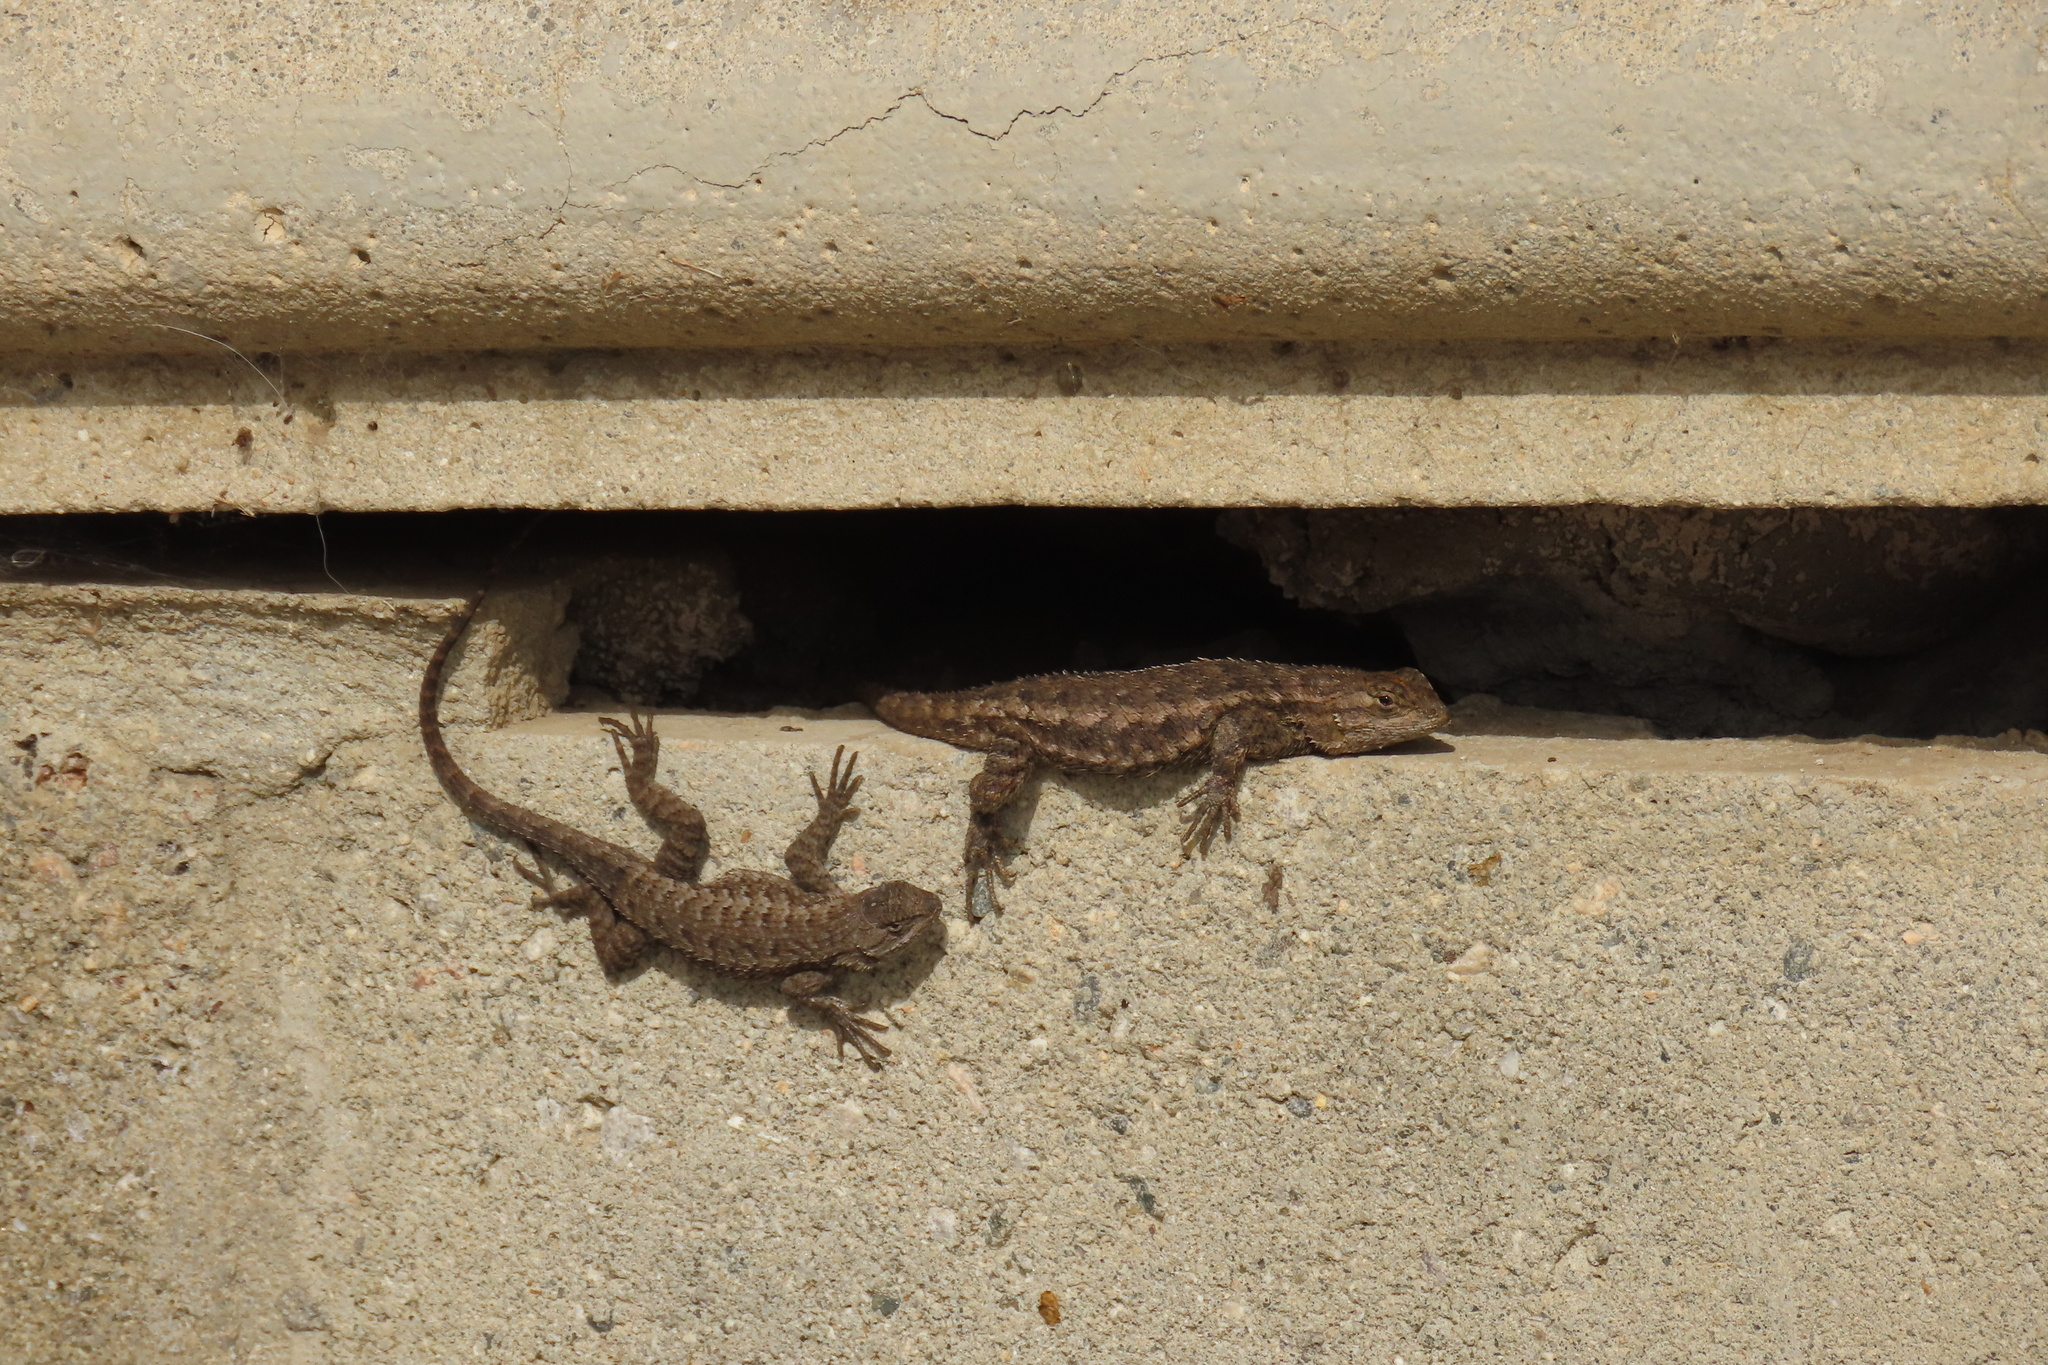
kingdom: Animalia
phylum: Chordata
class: Squamata
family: Phrynosomatidae
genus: Sceloporus
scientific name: Sceloporus occidentalis
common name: Western fence lizard
